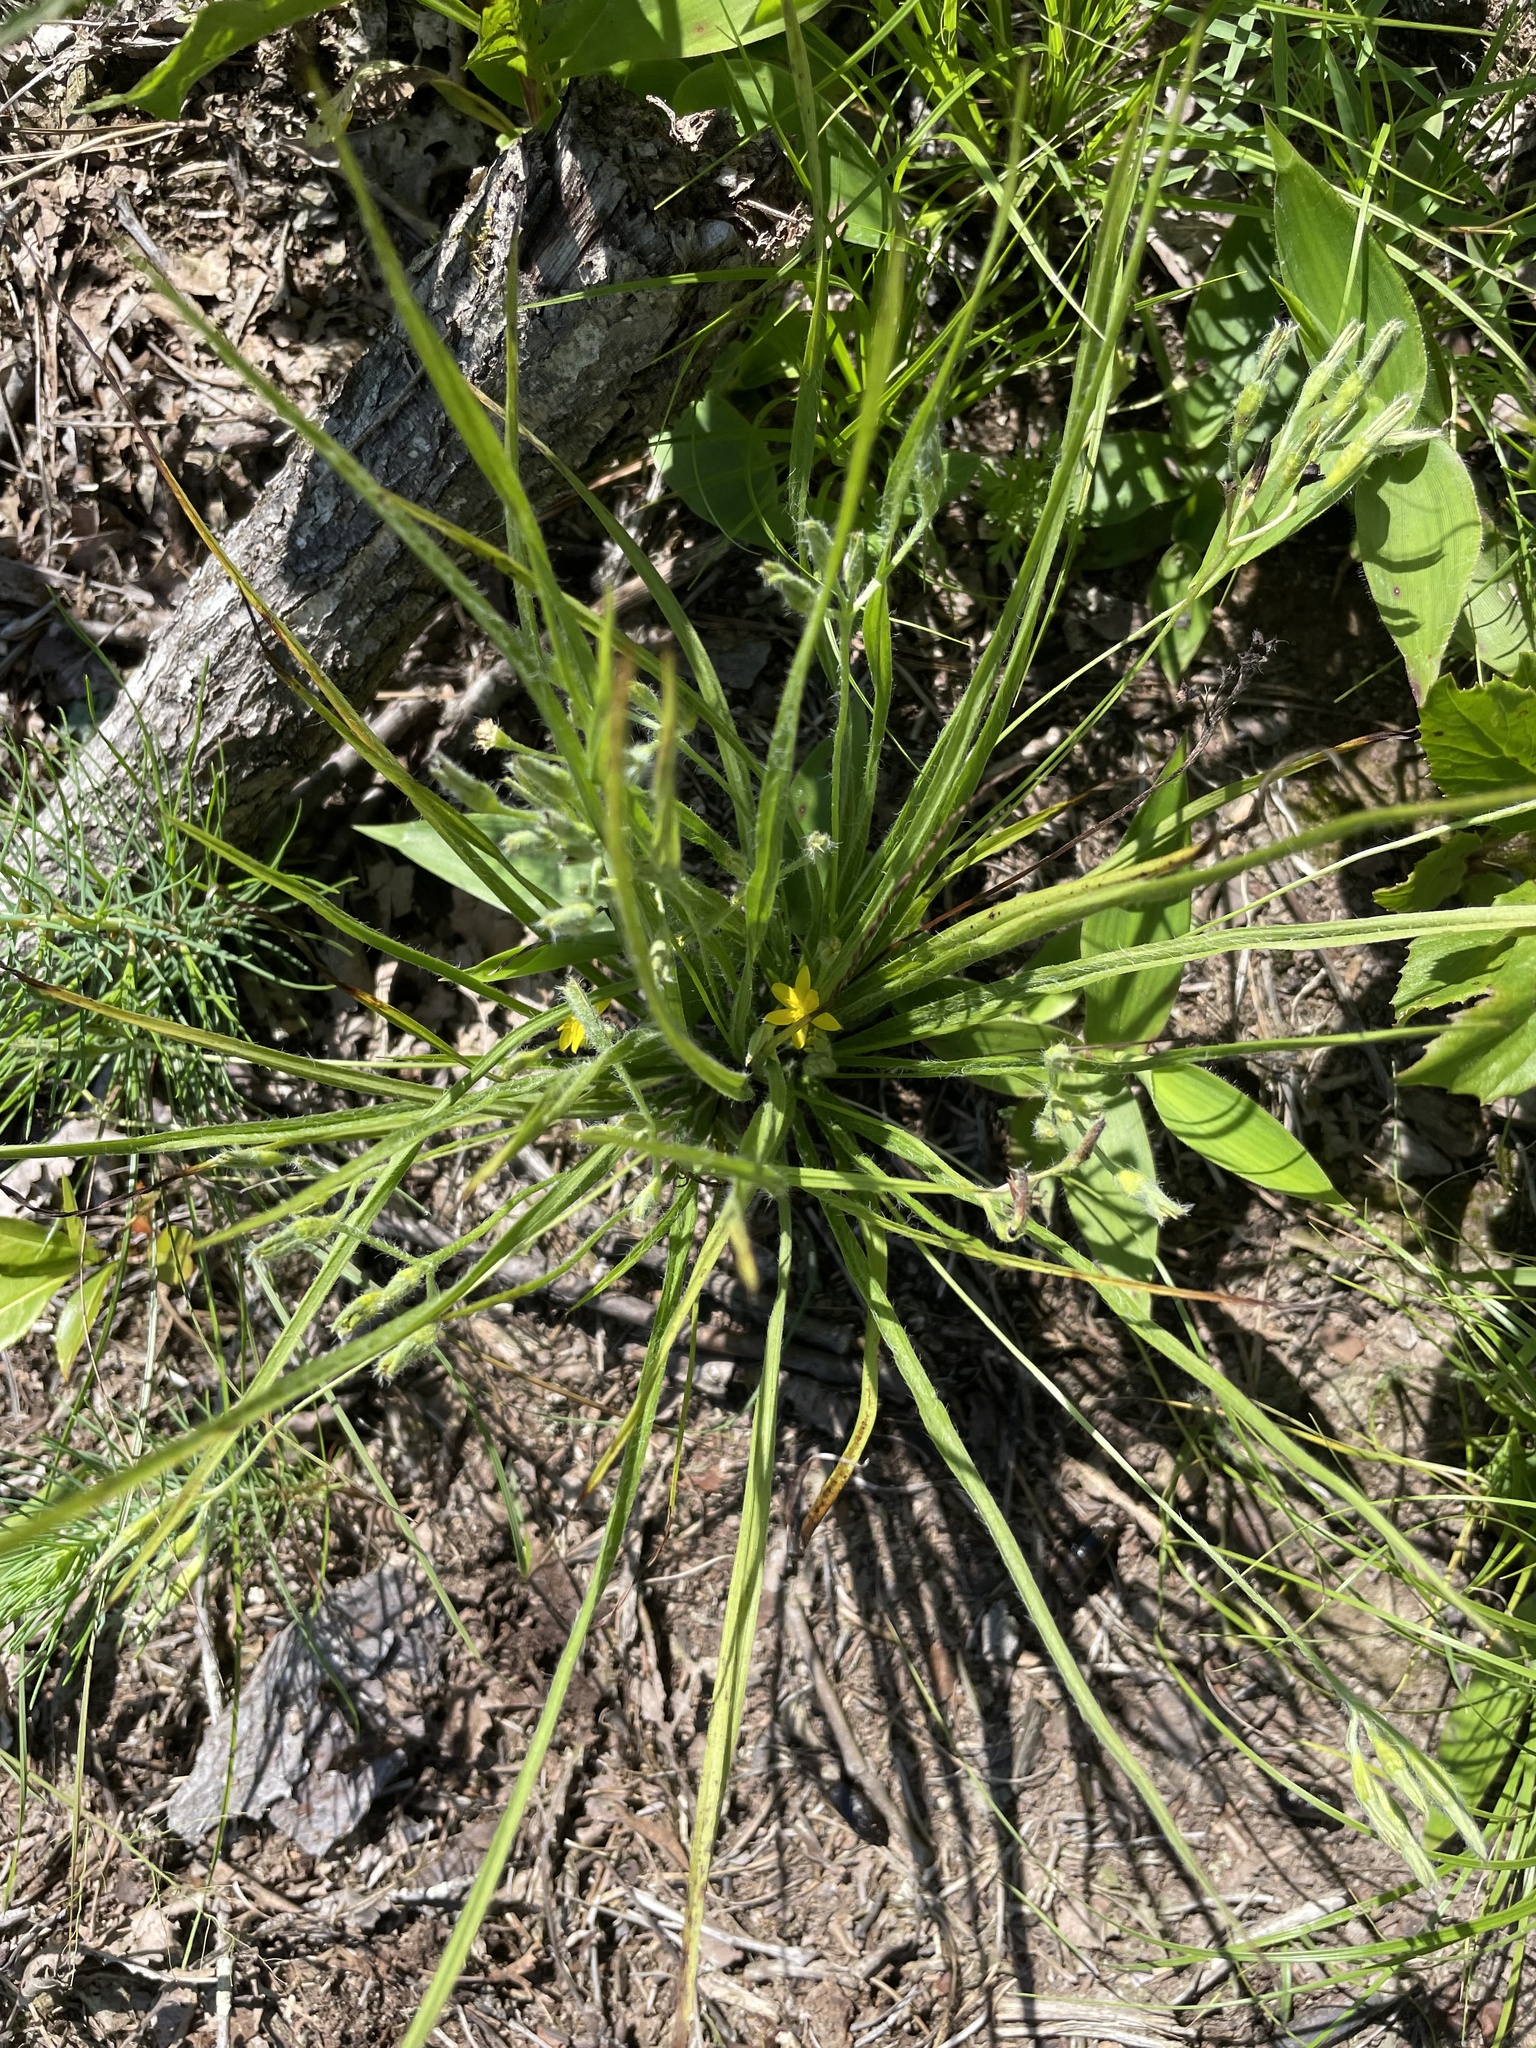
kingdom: Plantae
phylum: Tracheophyta
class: Liliopsida
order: Asparagales
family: Hypoxidaceae
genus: Hypoxis
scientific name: Hypoxis hirsuta
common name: Common goldstar
